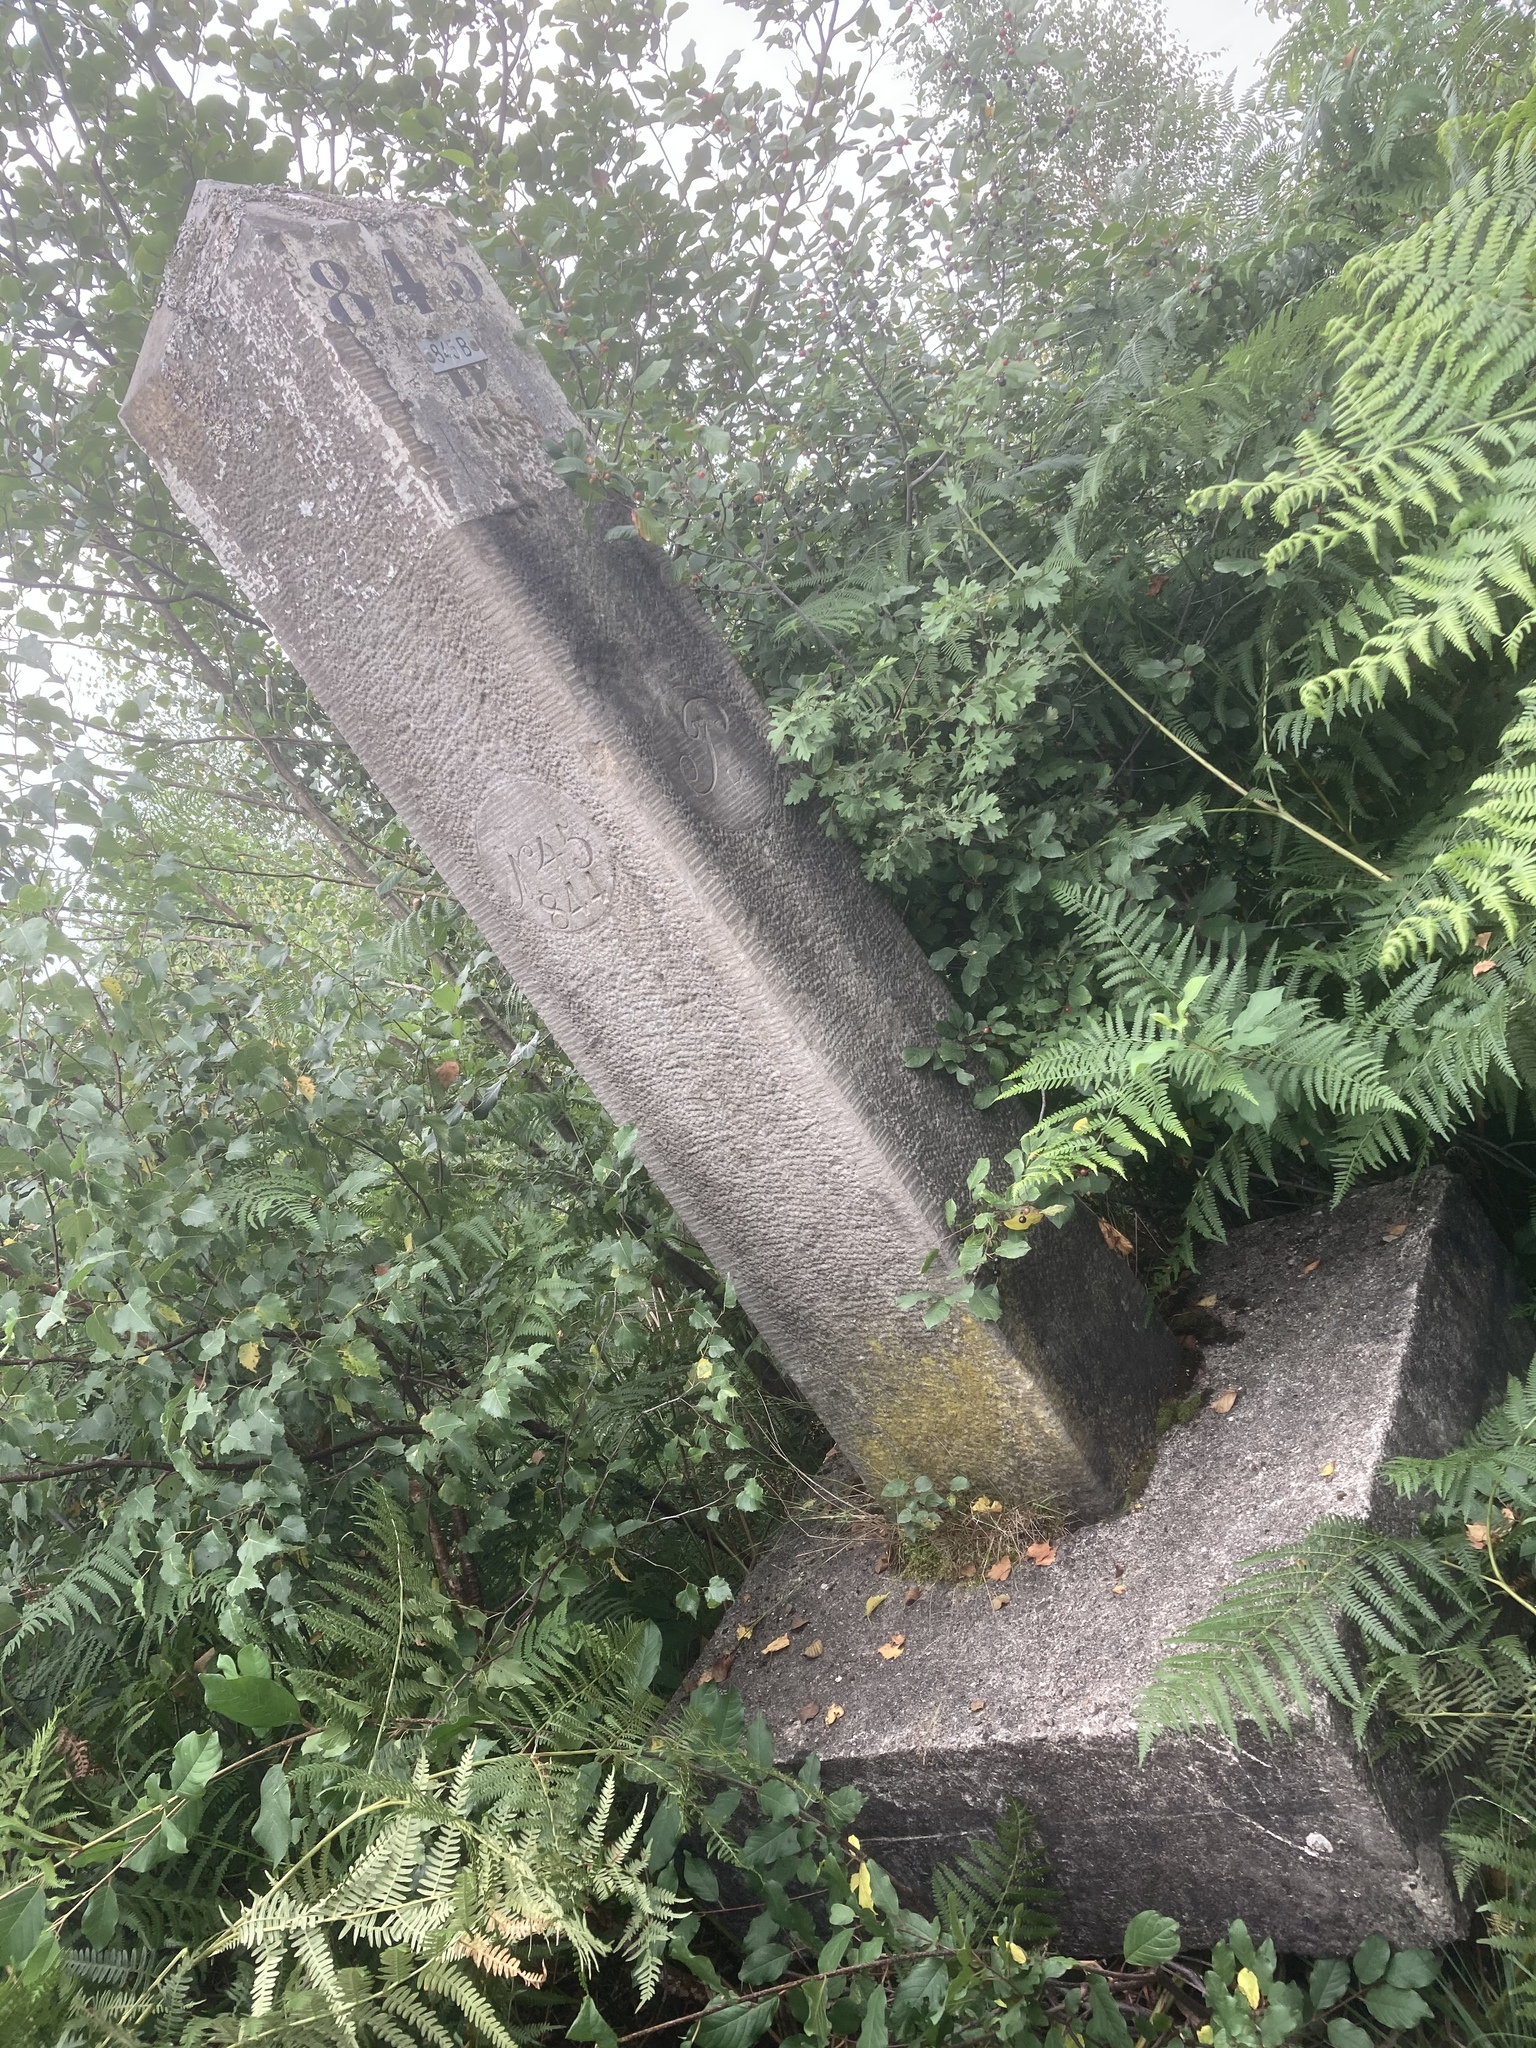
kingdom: Plantae
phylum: Tracheophyta
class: Polypodiopsida
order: Polypodiales
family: Dennstaedtiaceae
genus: Pteridium
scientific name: Pteridium aquilinum
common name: Bracken
